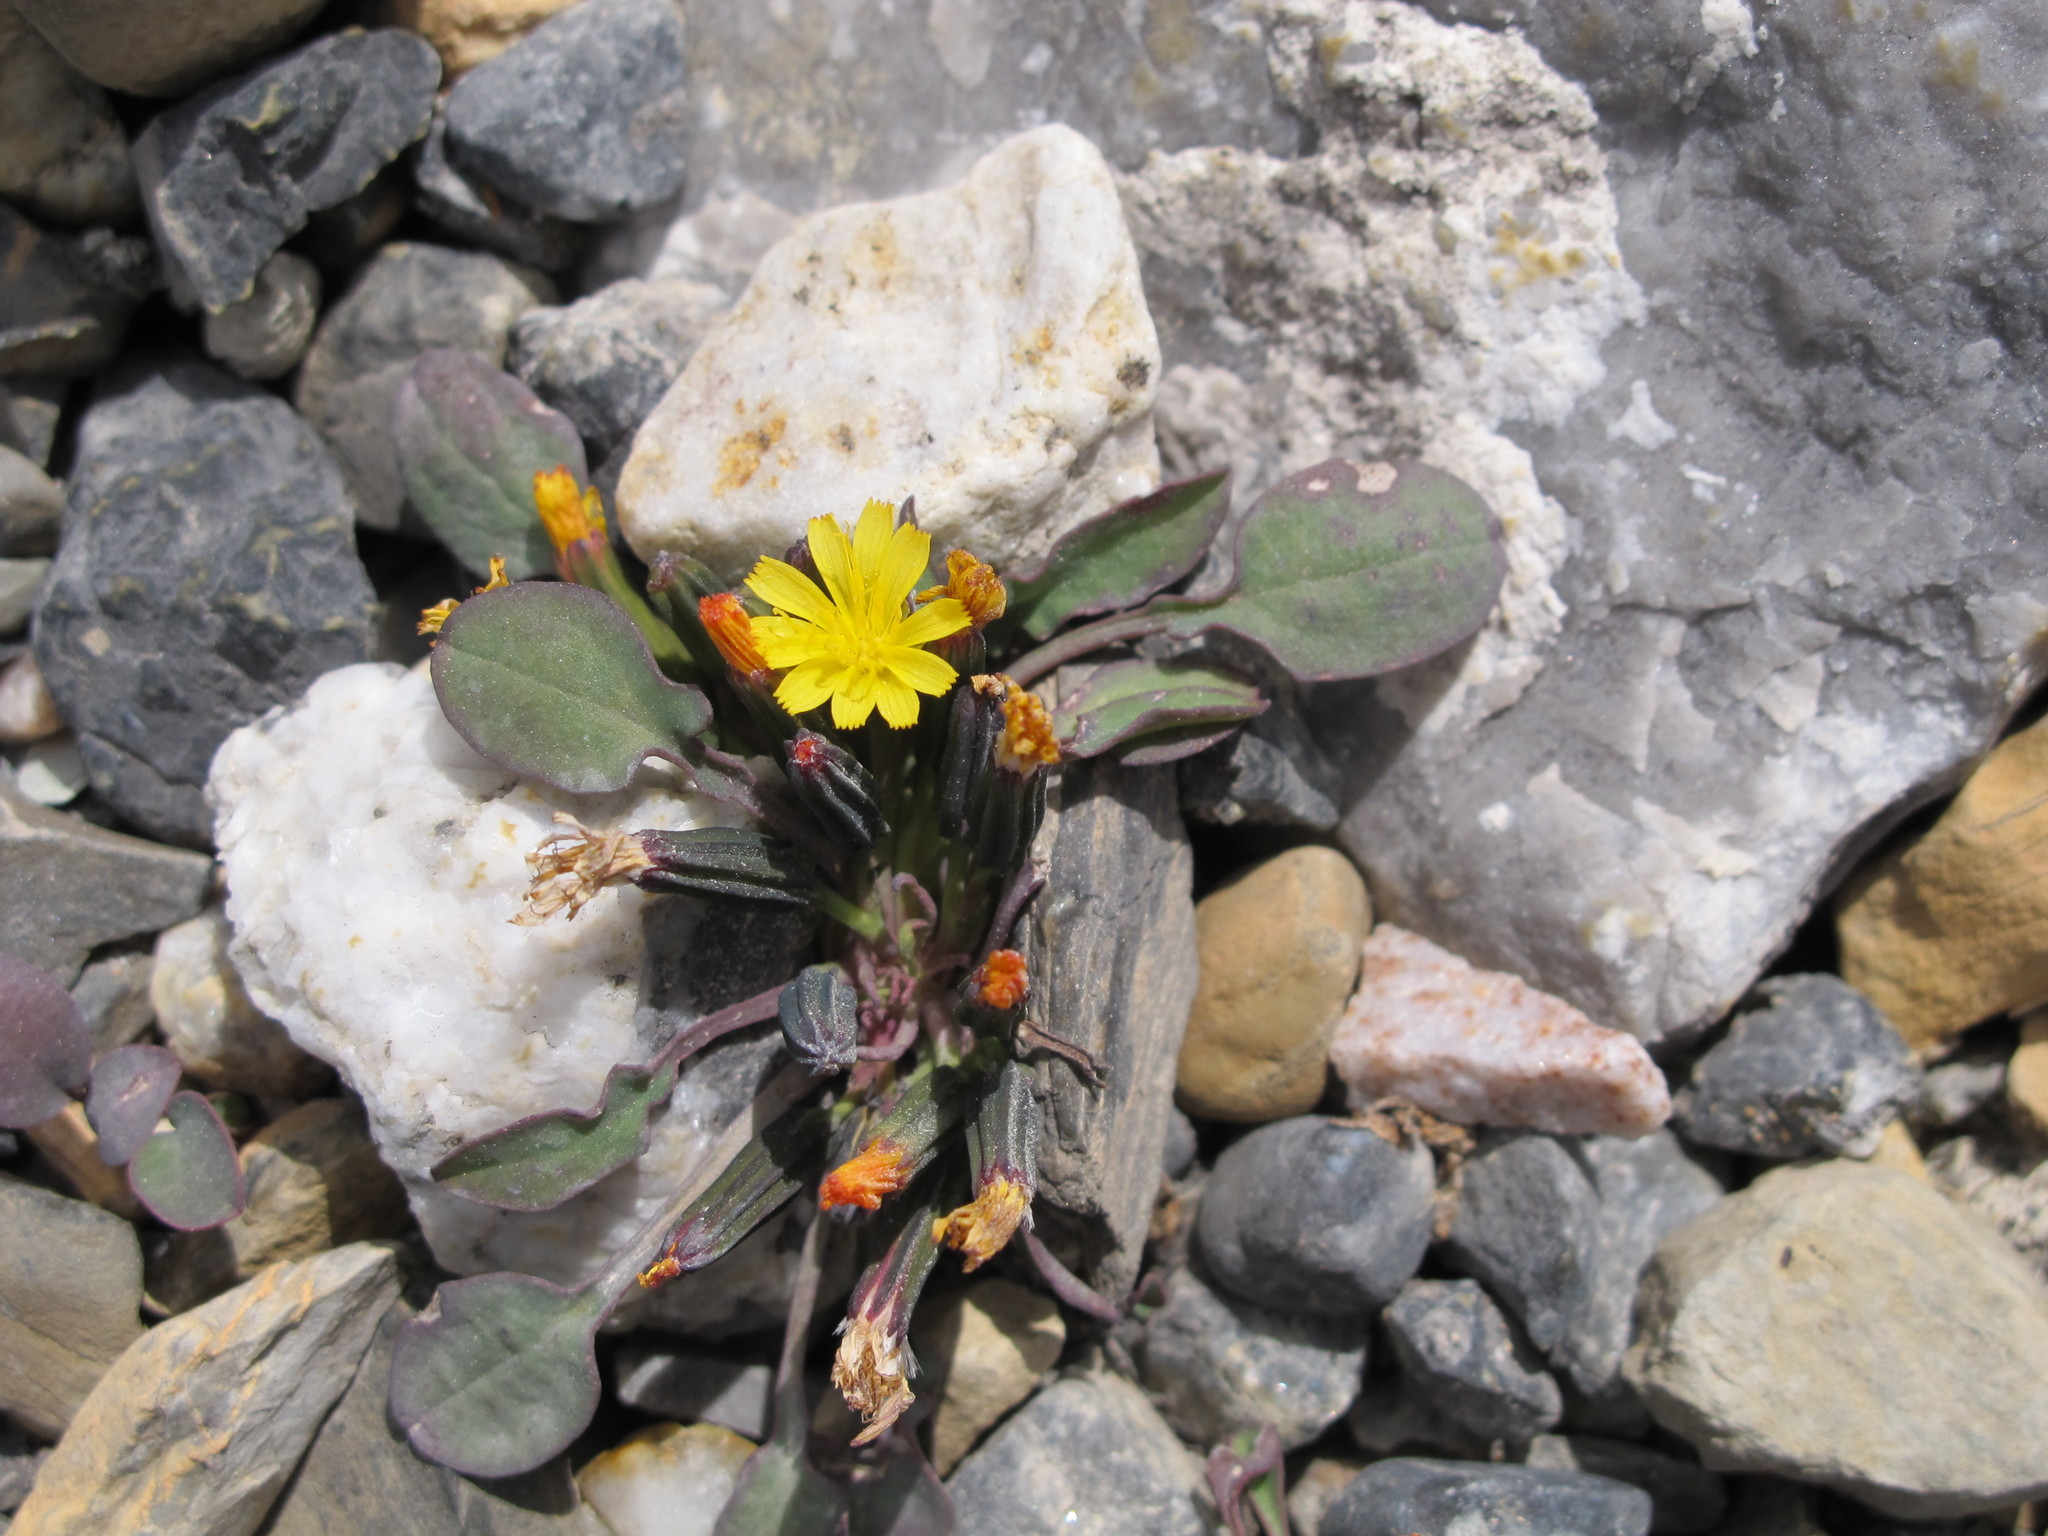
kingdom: Plantae
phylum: Tracheophyta
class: Magnoliopsida
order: Asterales
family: Asteraceae
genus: Askellia
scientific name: Askellia pygmaea
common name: Dwarf alpine hawksbeard
